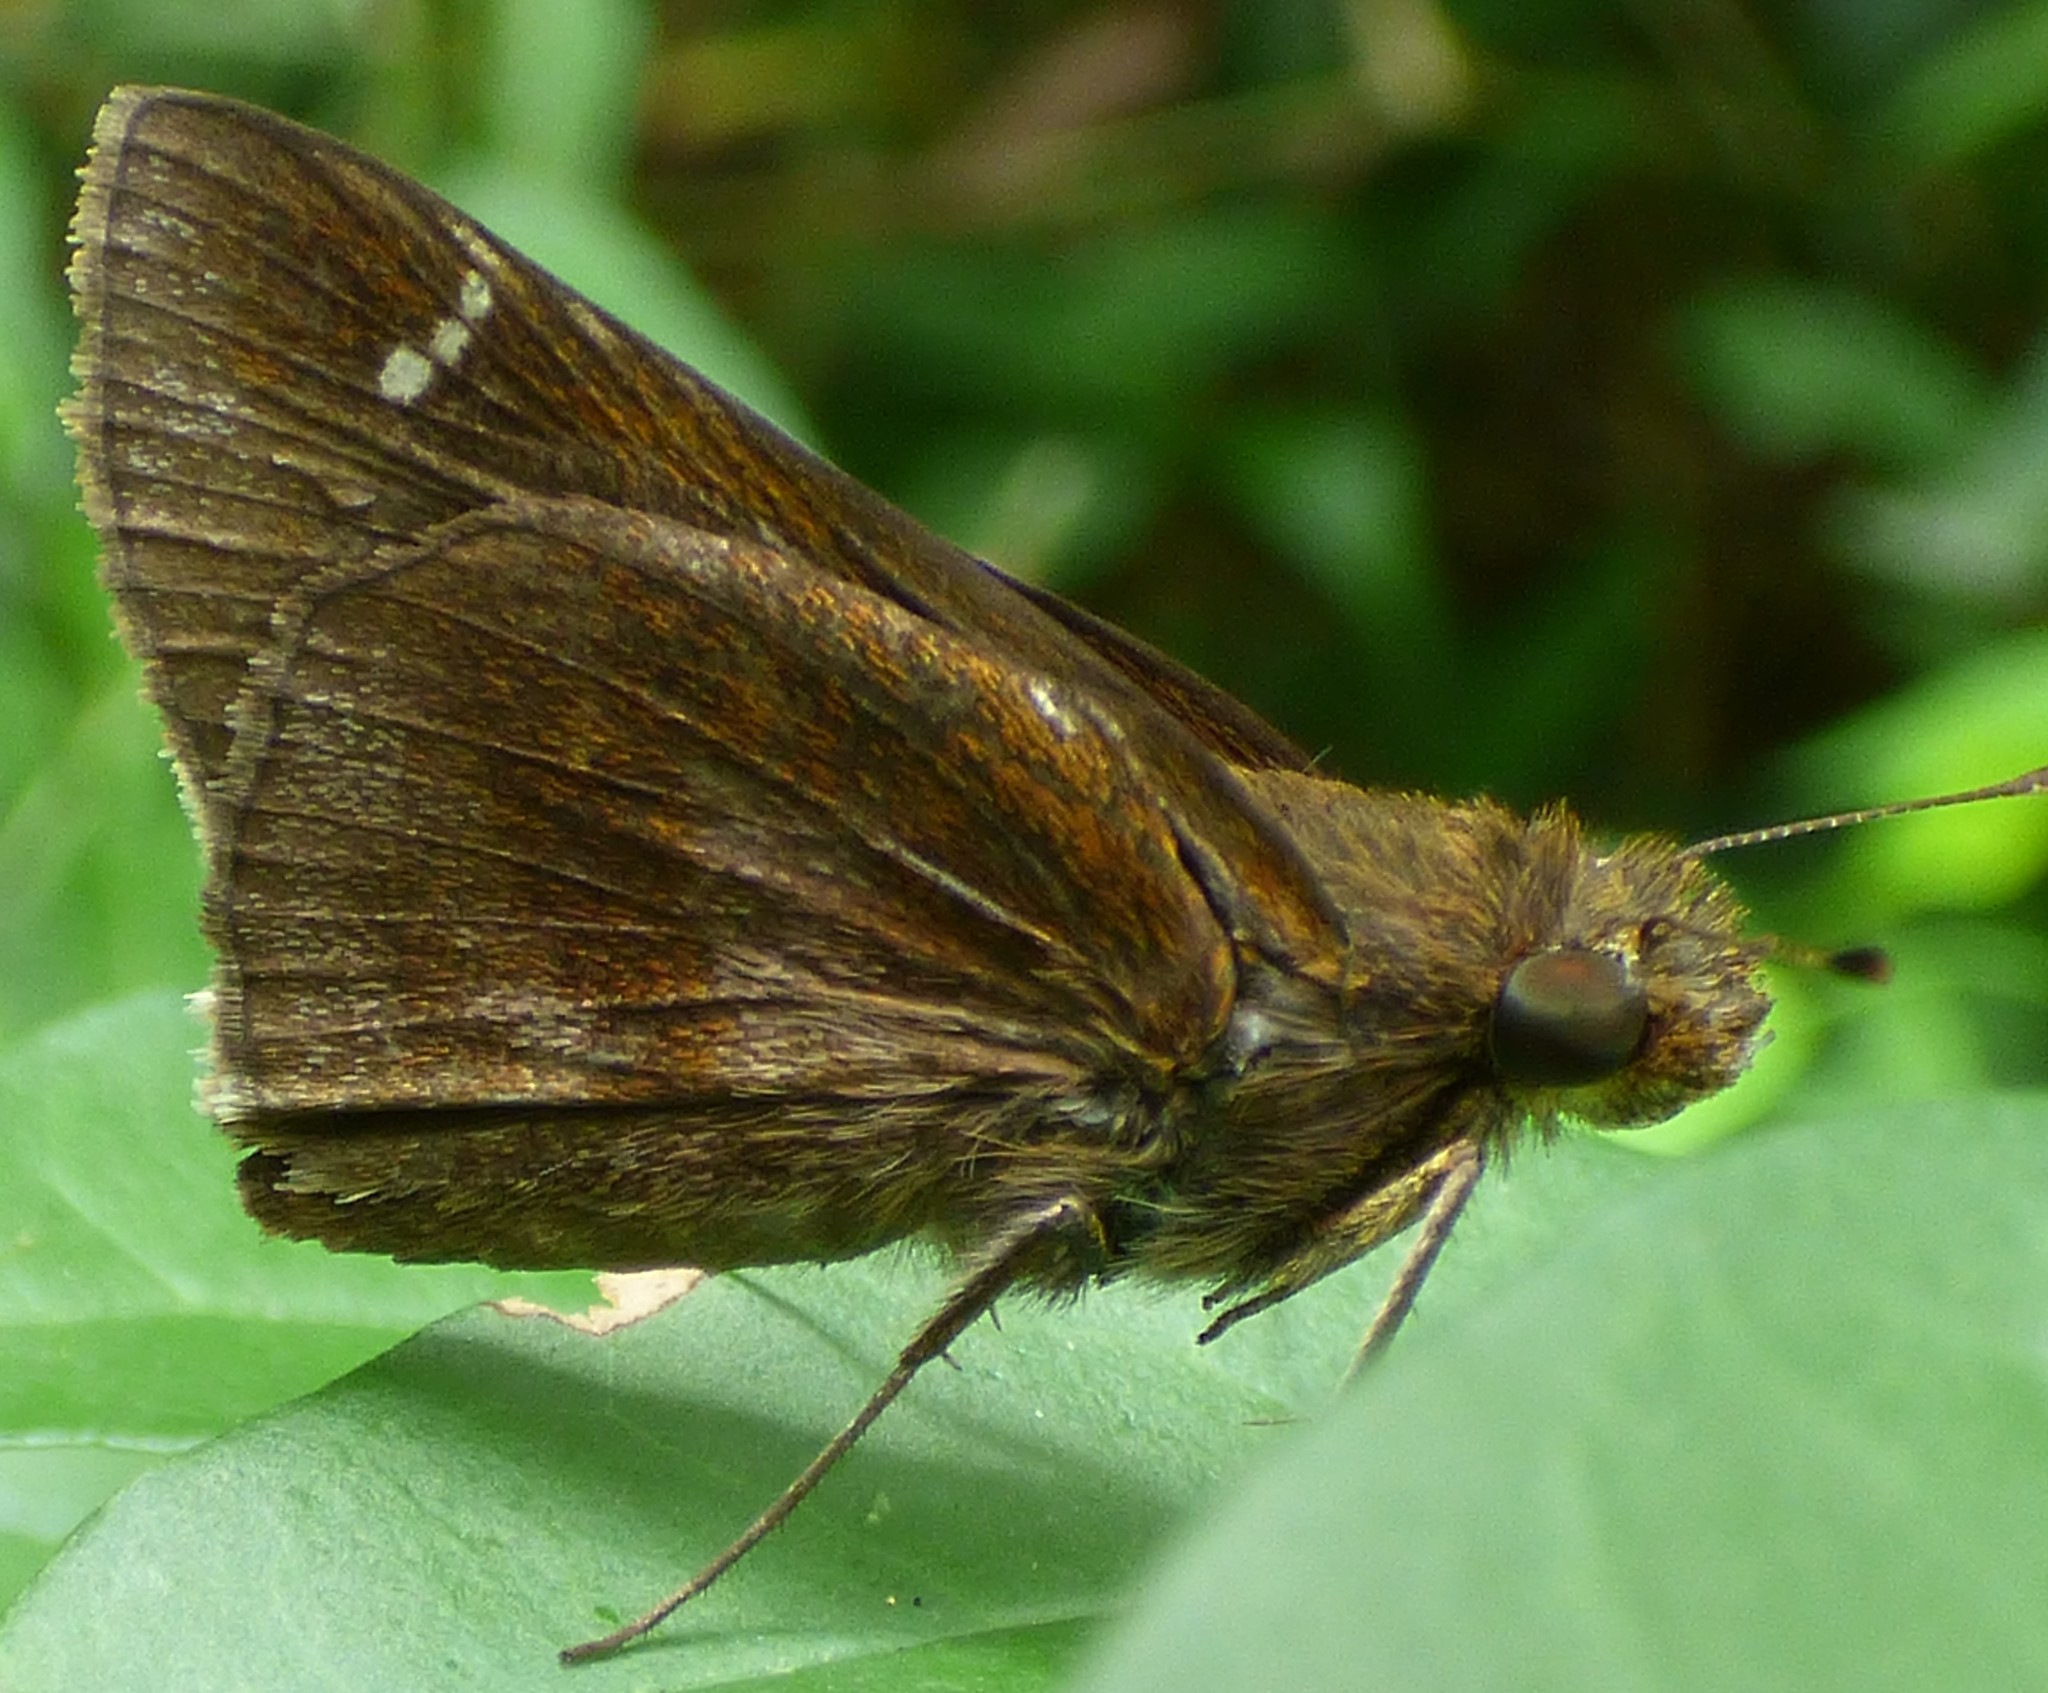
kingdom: Animalia
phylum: Arthropoda
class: Insecta
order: Lepidoptera
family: Hesperiidae
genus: Lerema
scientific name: Lerema accius
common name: Clouded skipper
